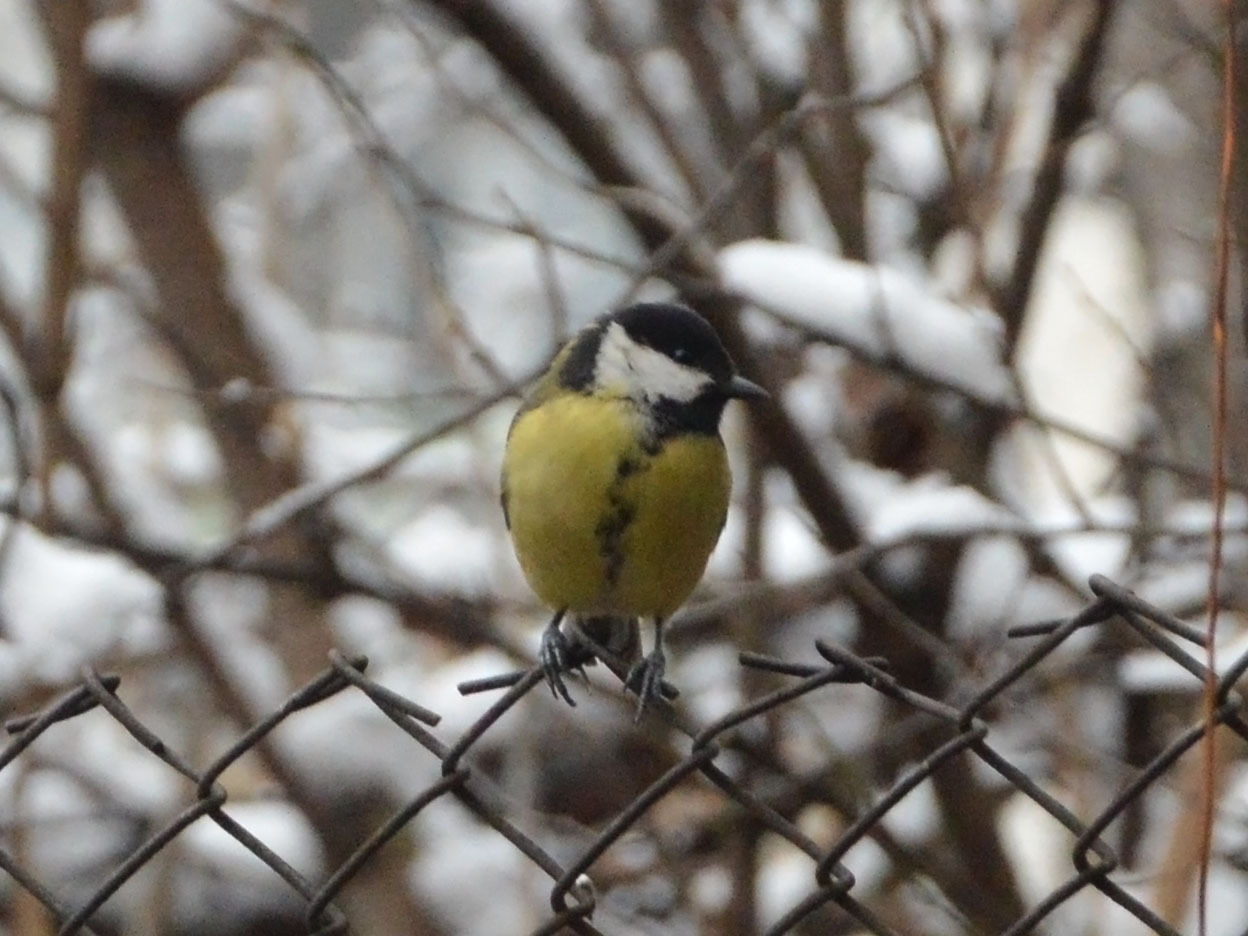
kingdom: Animalia
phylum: Chordata
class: Aves
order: Passeriformes
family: Paridae
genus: Parus
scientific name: Parus major
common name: Great tit
